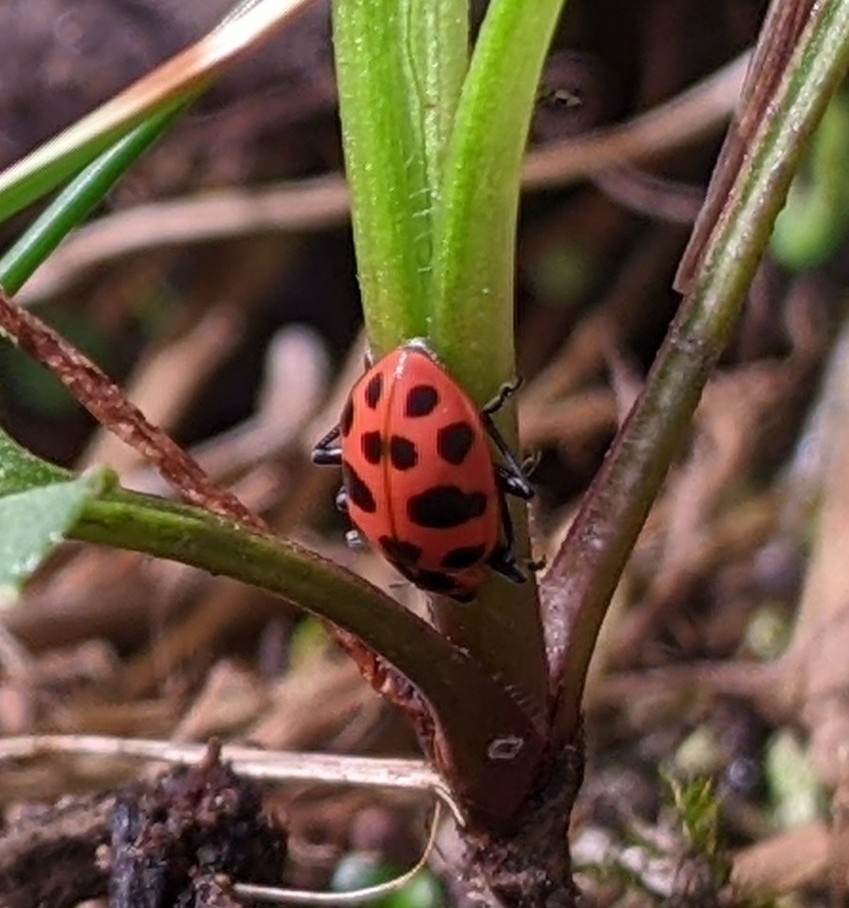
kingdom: Animalia
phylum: Arthropoda
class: Insecta
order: Coleoptera
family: Coccinellidae
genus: Coleomegilla
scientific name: Coleomegilla maculata
